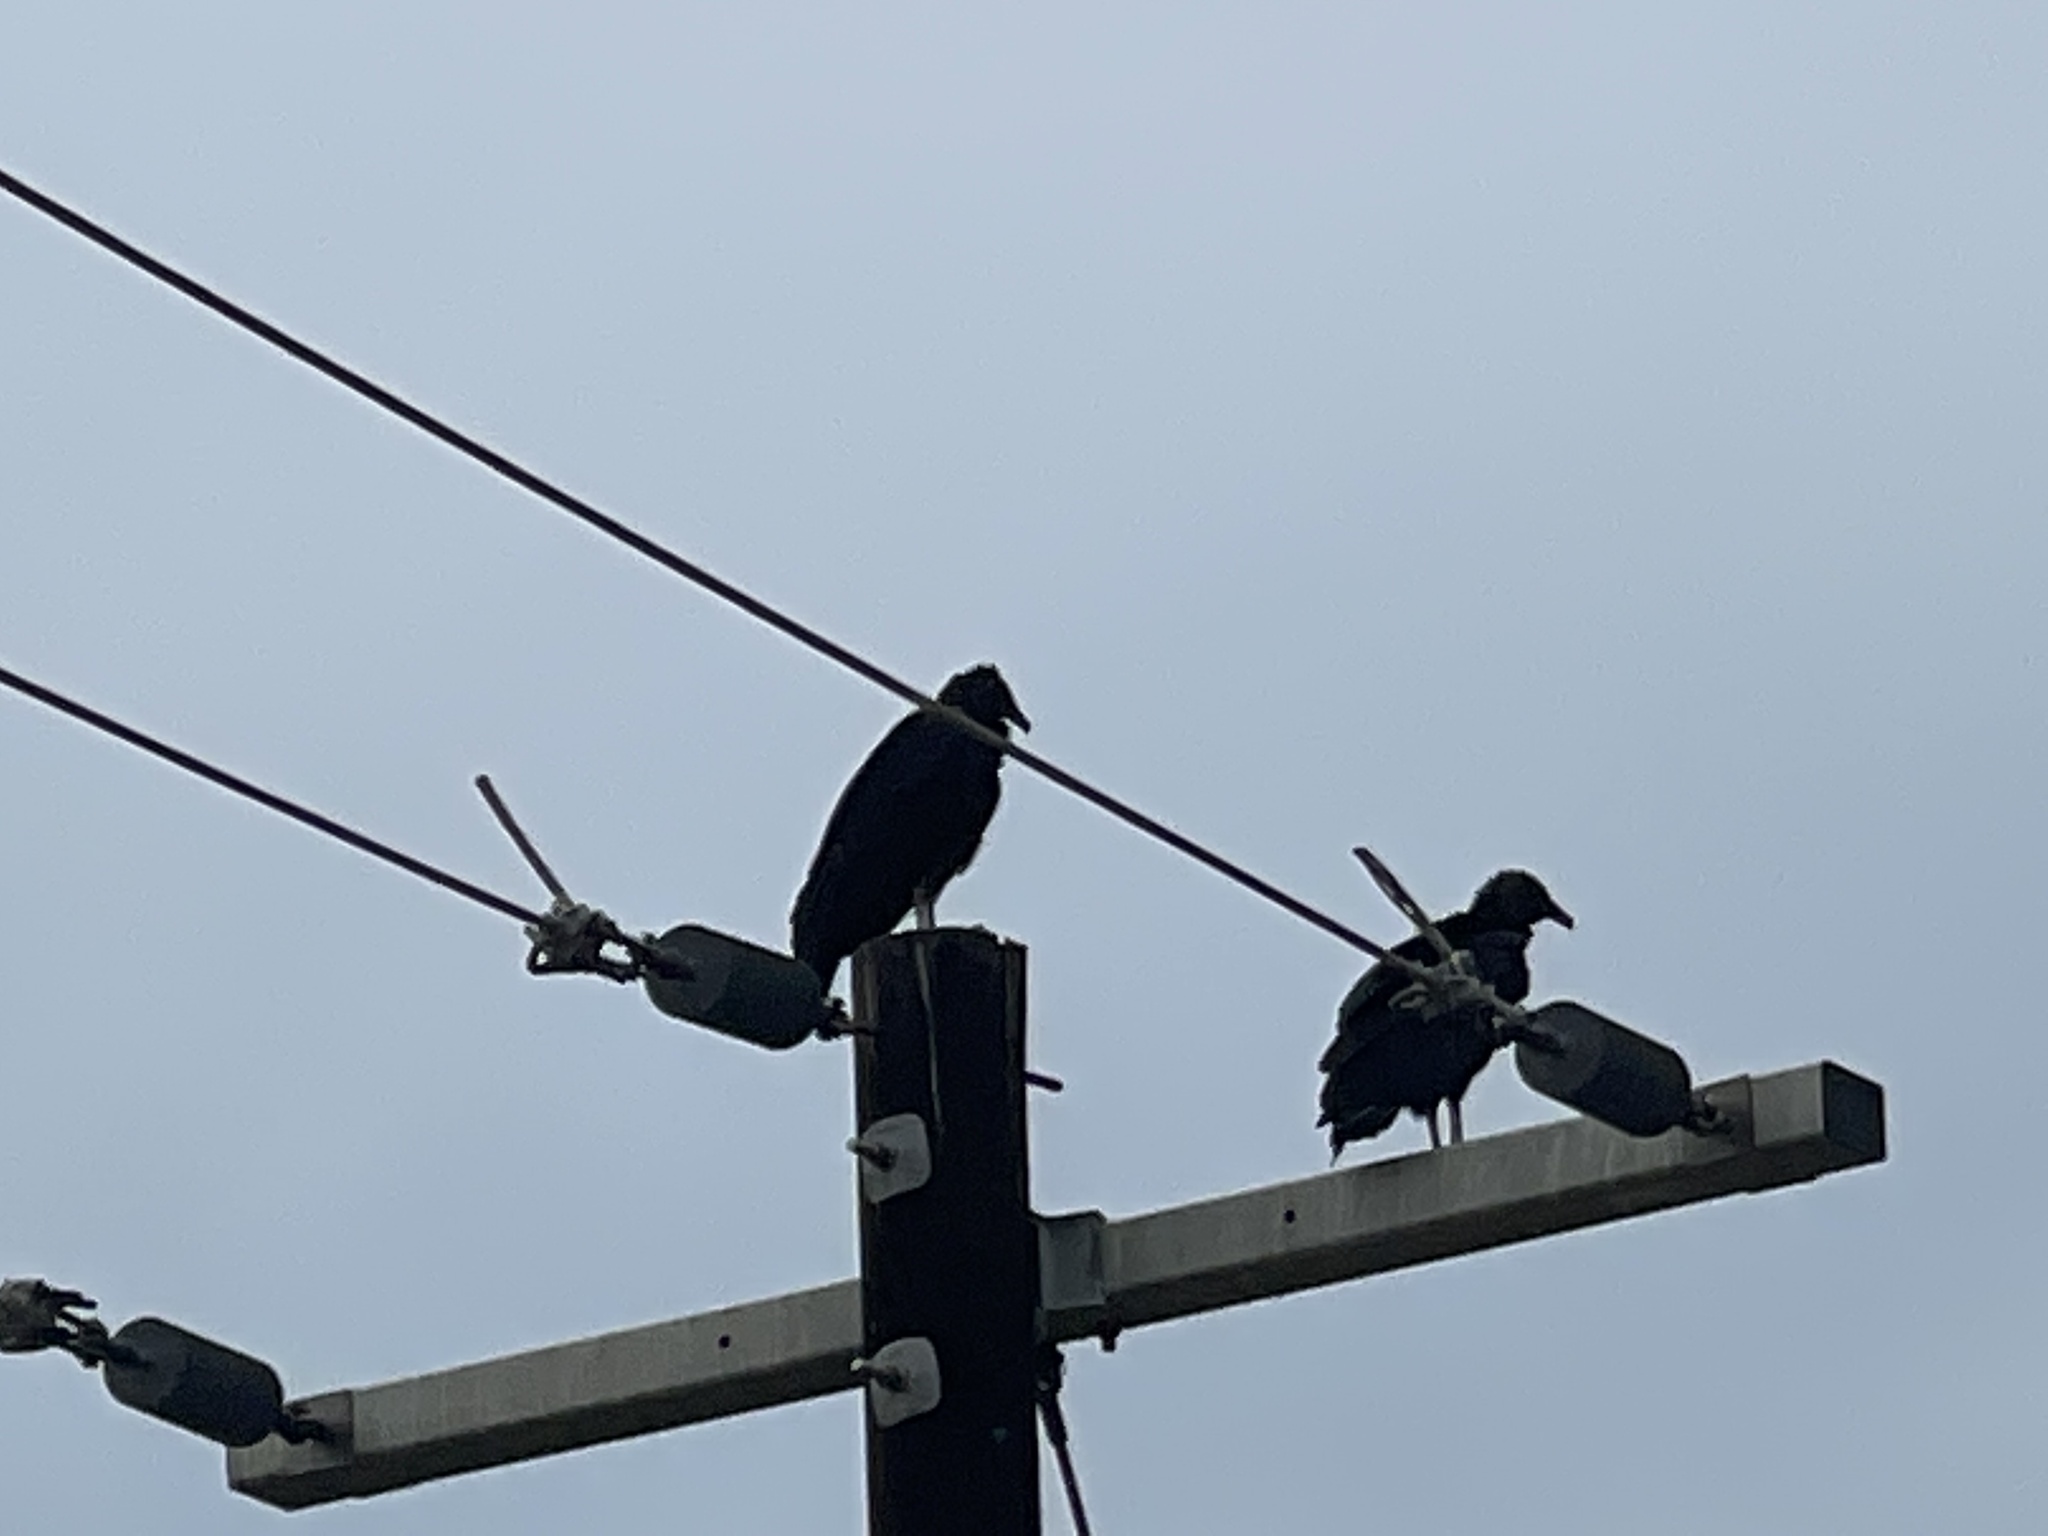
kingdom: Animalia
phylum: Chordata
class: Aves
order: Accipitriformes
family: Cathartidae
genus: Coragyps
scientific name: Coragyps atratus
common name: Black vulture
